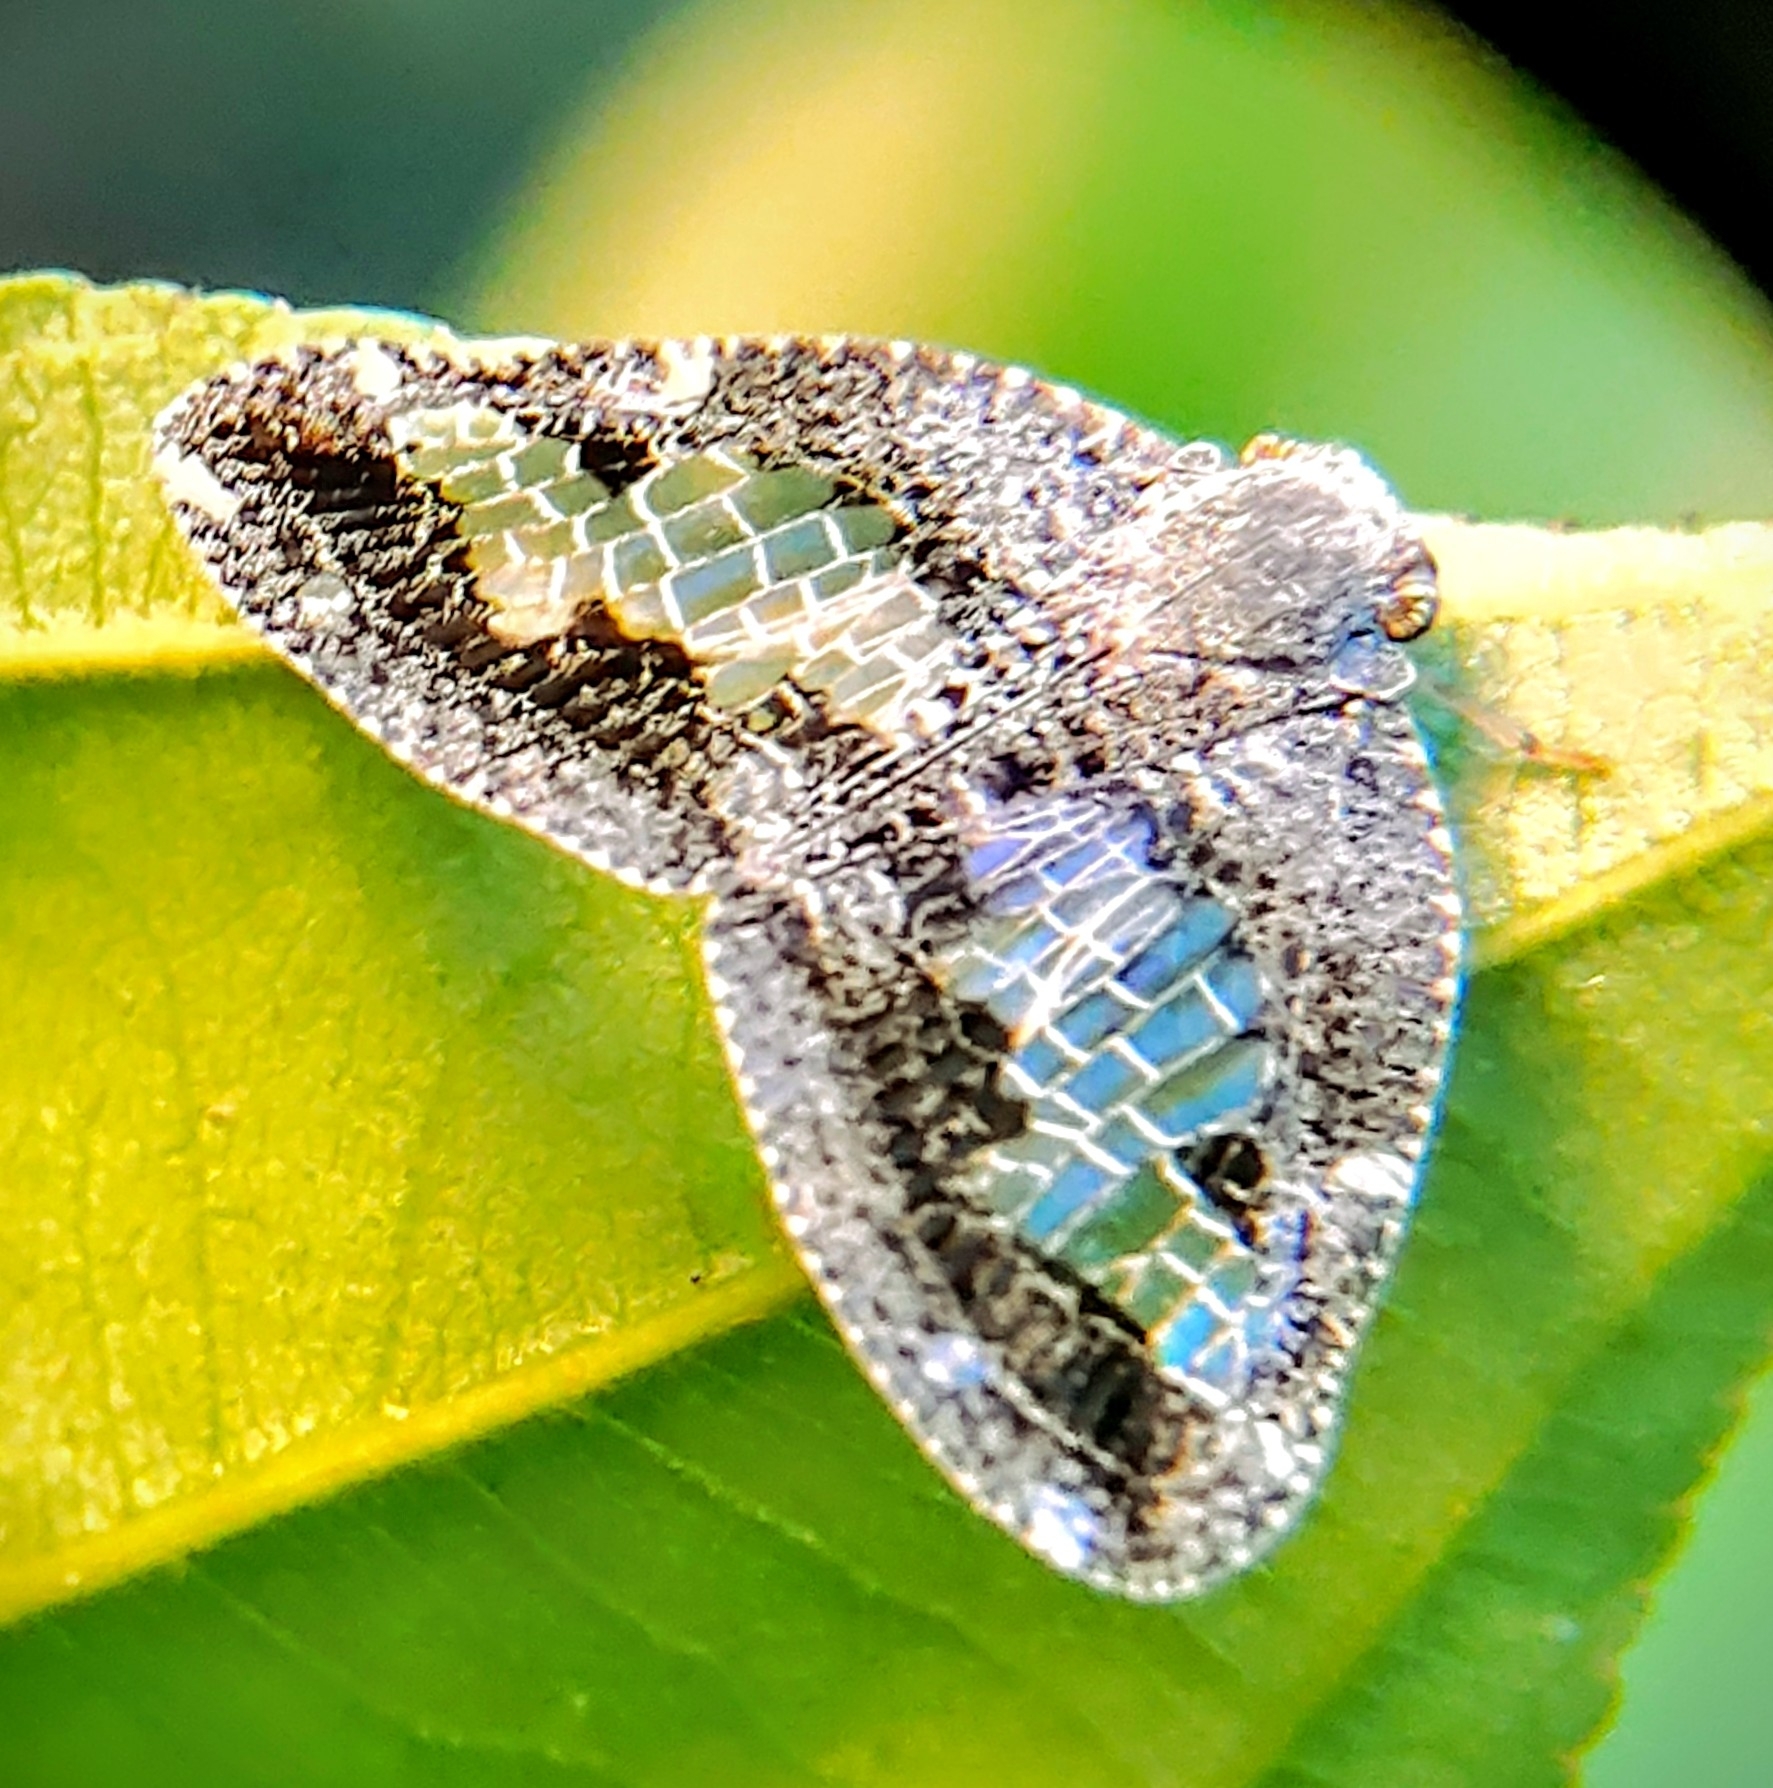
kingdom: Animalia
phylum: Arthropoda
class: Insecta
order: Hemiptera
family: Ricaniidae
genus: Ricanoptera
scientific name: Ricanoptera fenestrata
